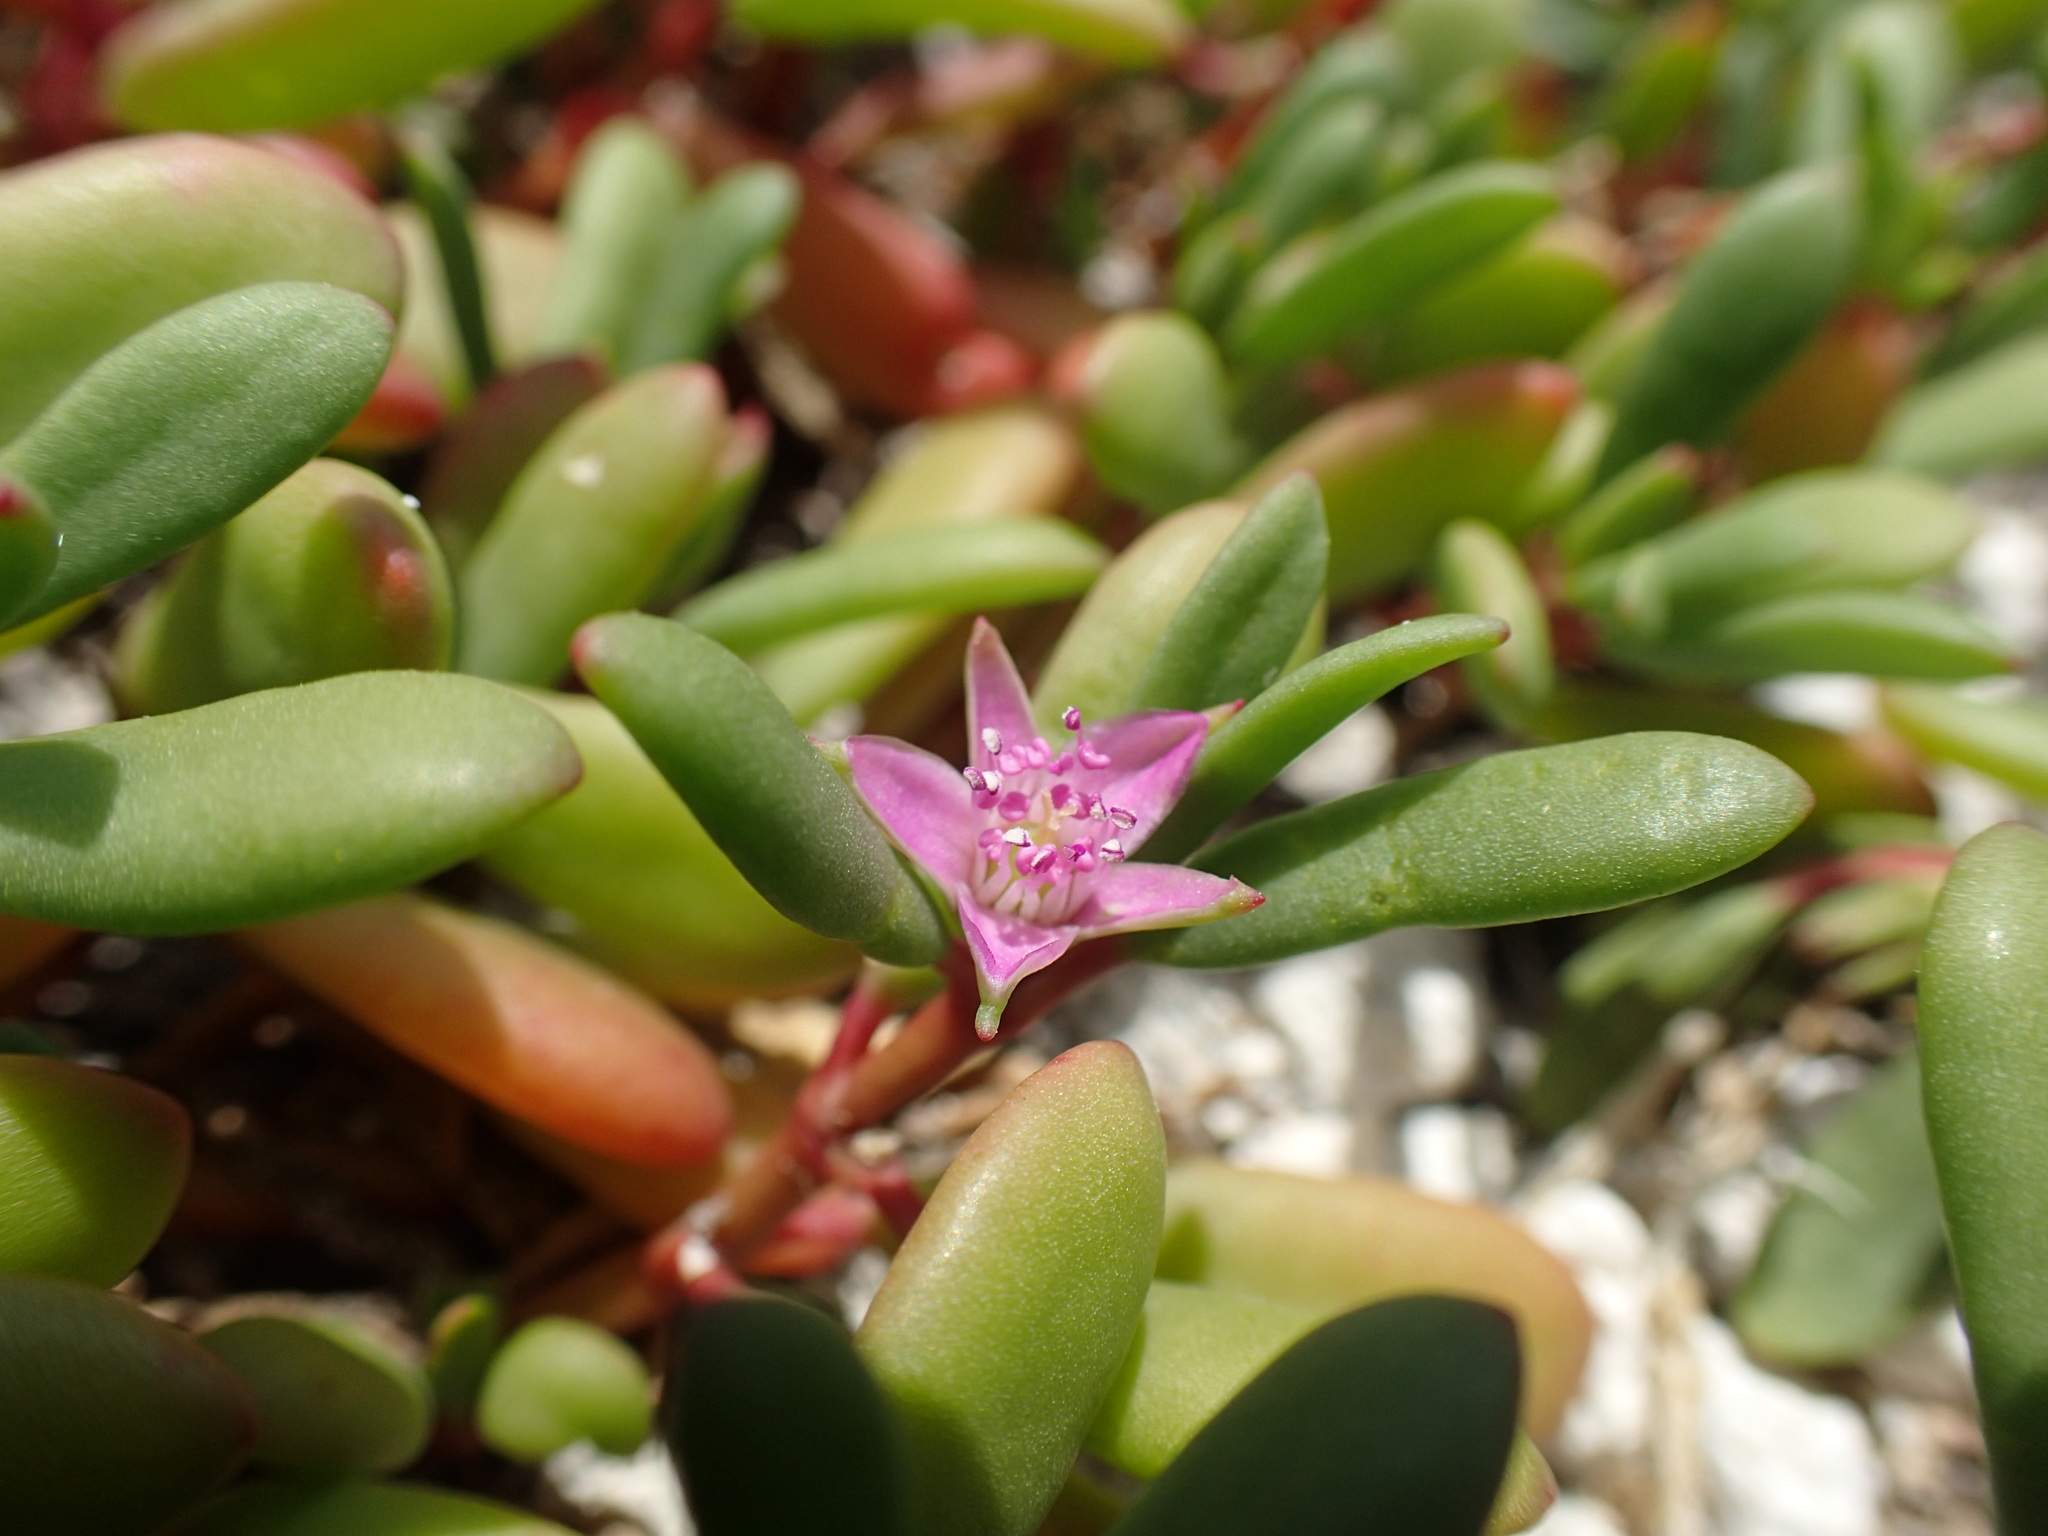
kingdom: Plantae
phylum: Tracheophyta
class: Magnoliopsida
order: Caryophyllales
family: Aizoaceae
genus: Sesuvium
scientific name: Sesuvium portulacastrum
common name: Sea-purslane
